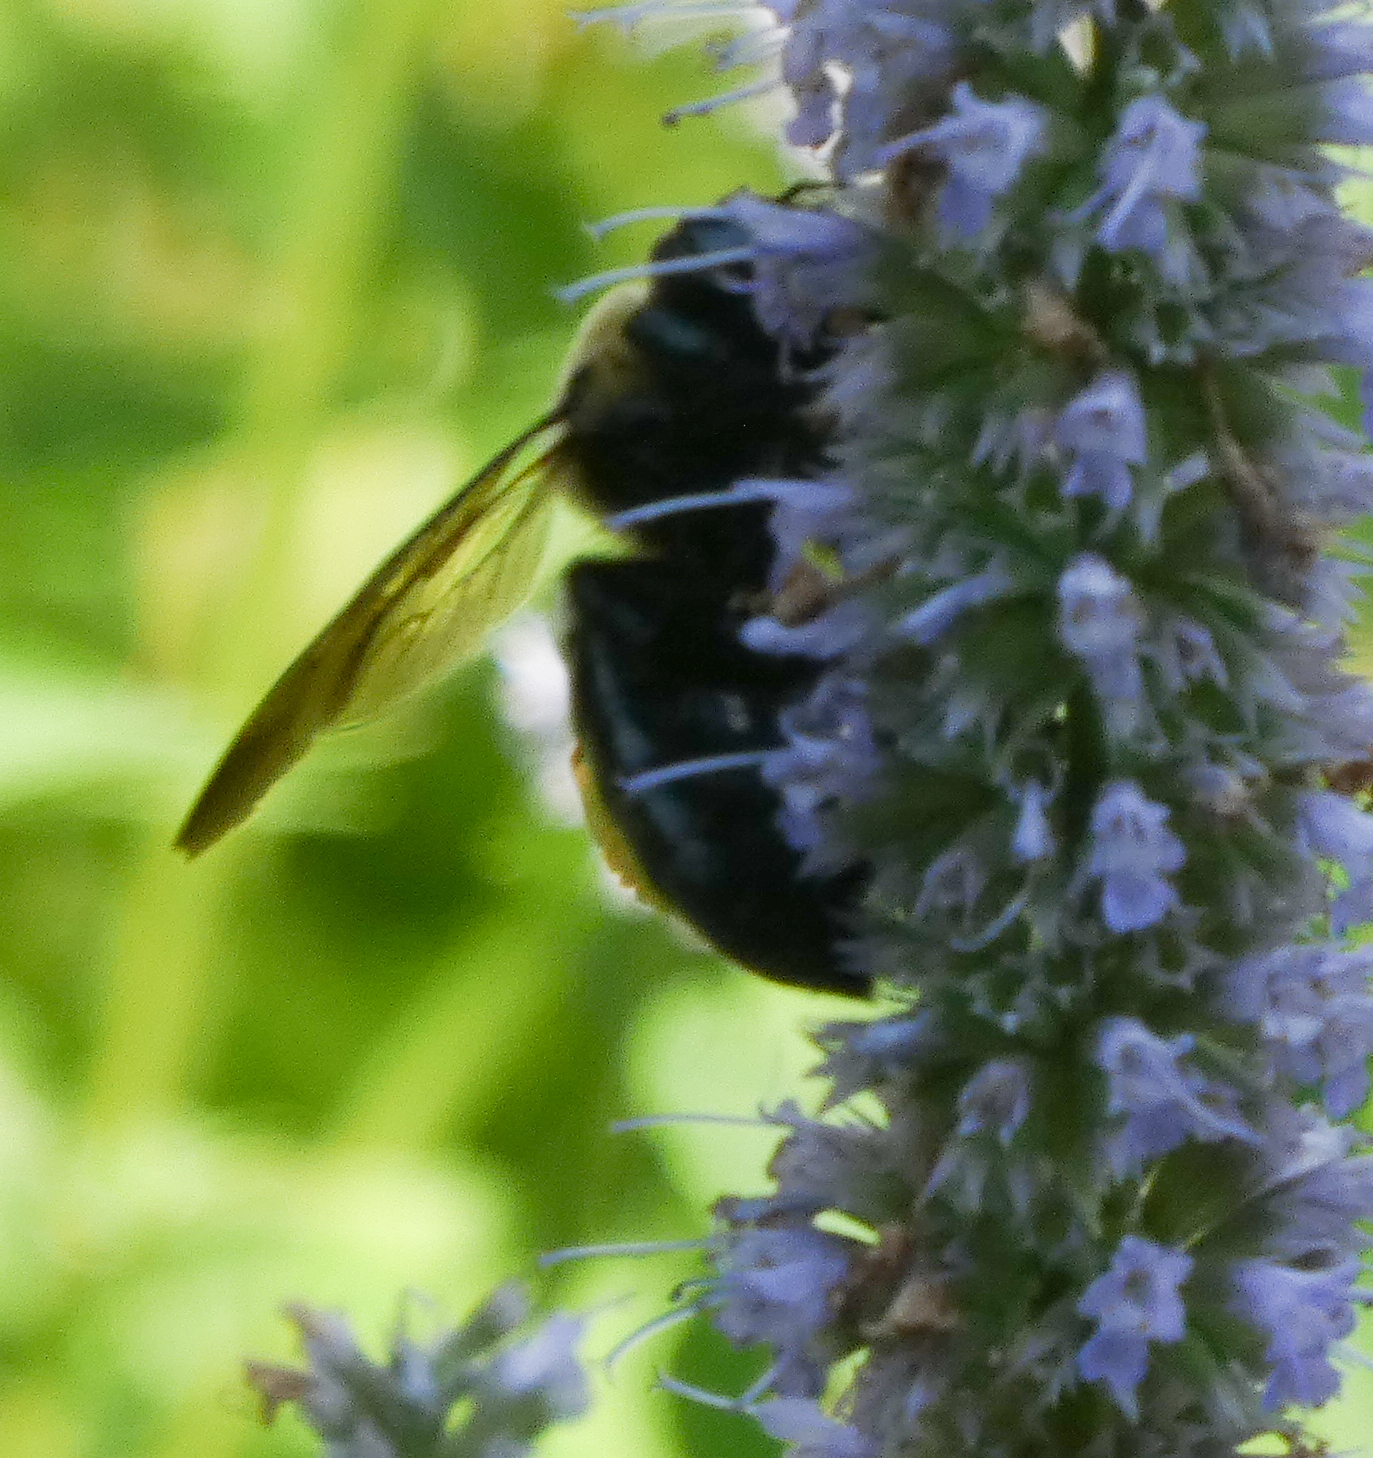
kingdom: Animalia
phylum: Arthropoda
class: Insecta
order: Hymenoptera
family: Apidae
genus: Xylocopa
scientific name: Xylocopa virginica
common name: Carpenter bee
